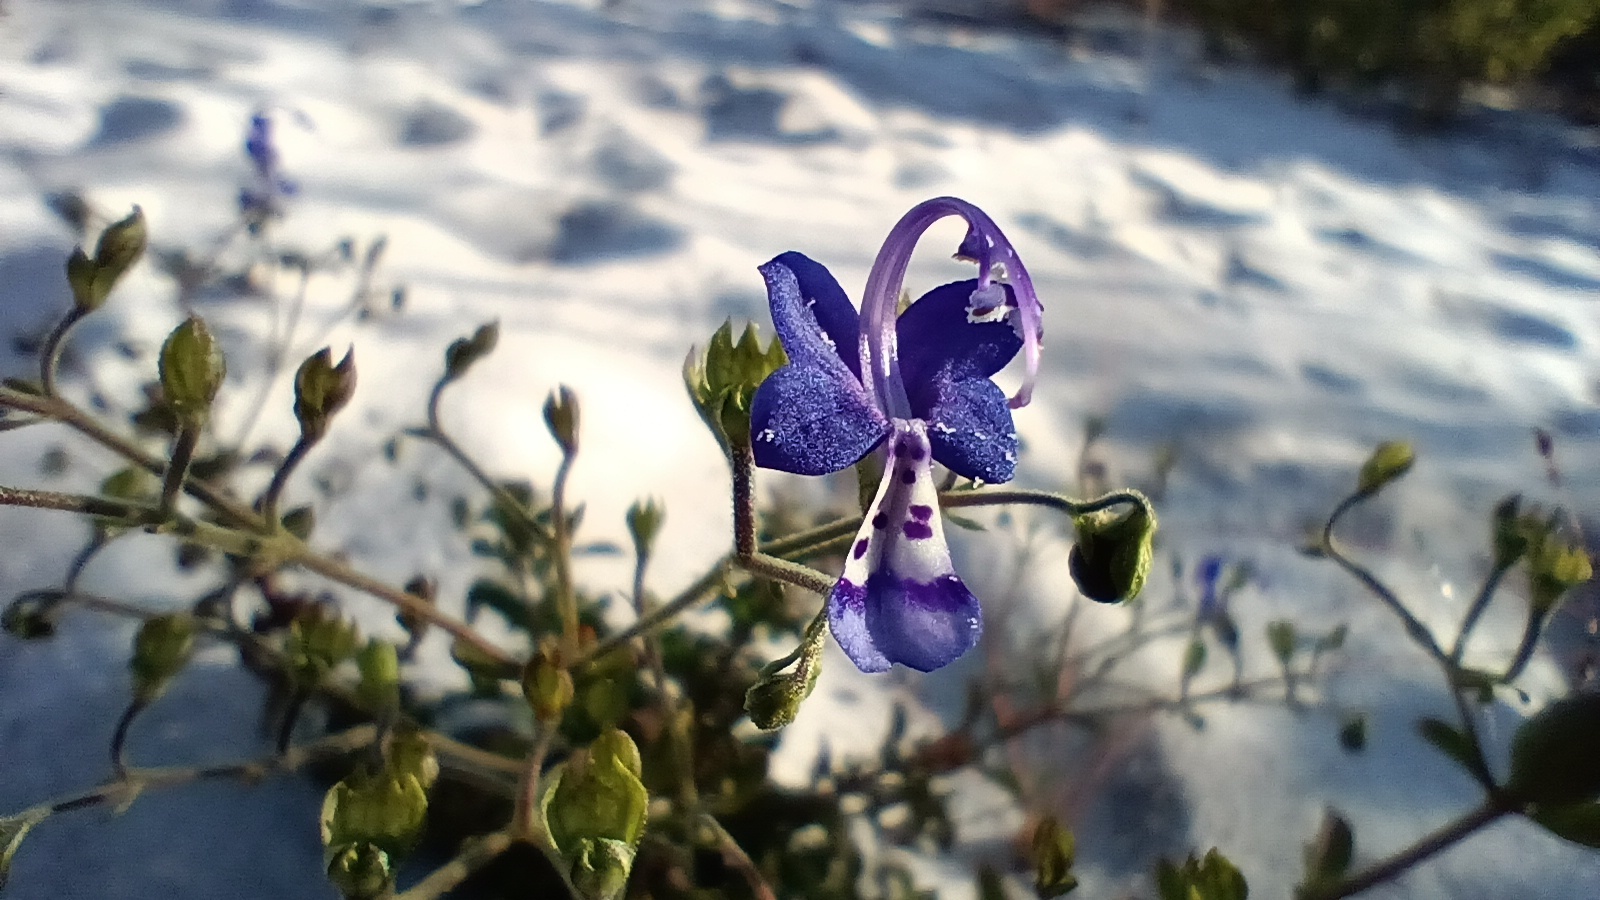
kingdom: Plantae
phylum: Tracheophyta
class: Magnoliopsida
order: Lamiales
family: Lamiaceae
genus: Trichostema
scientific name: Trichostema bridgesii-orzellii
